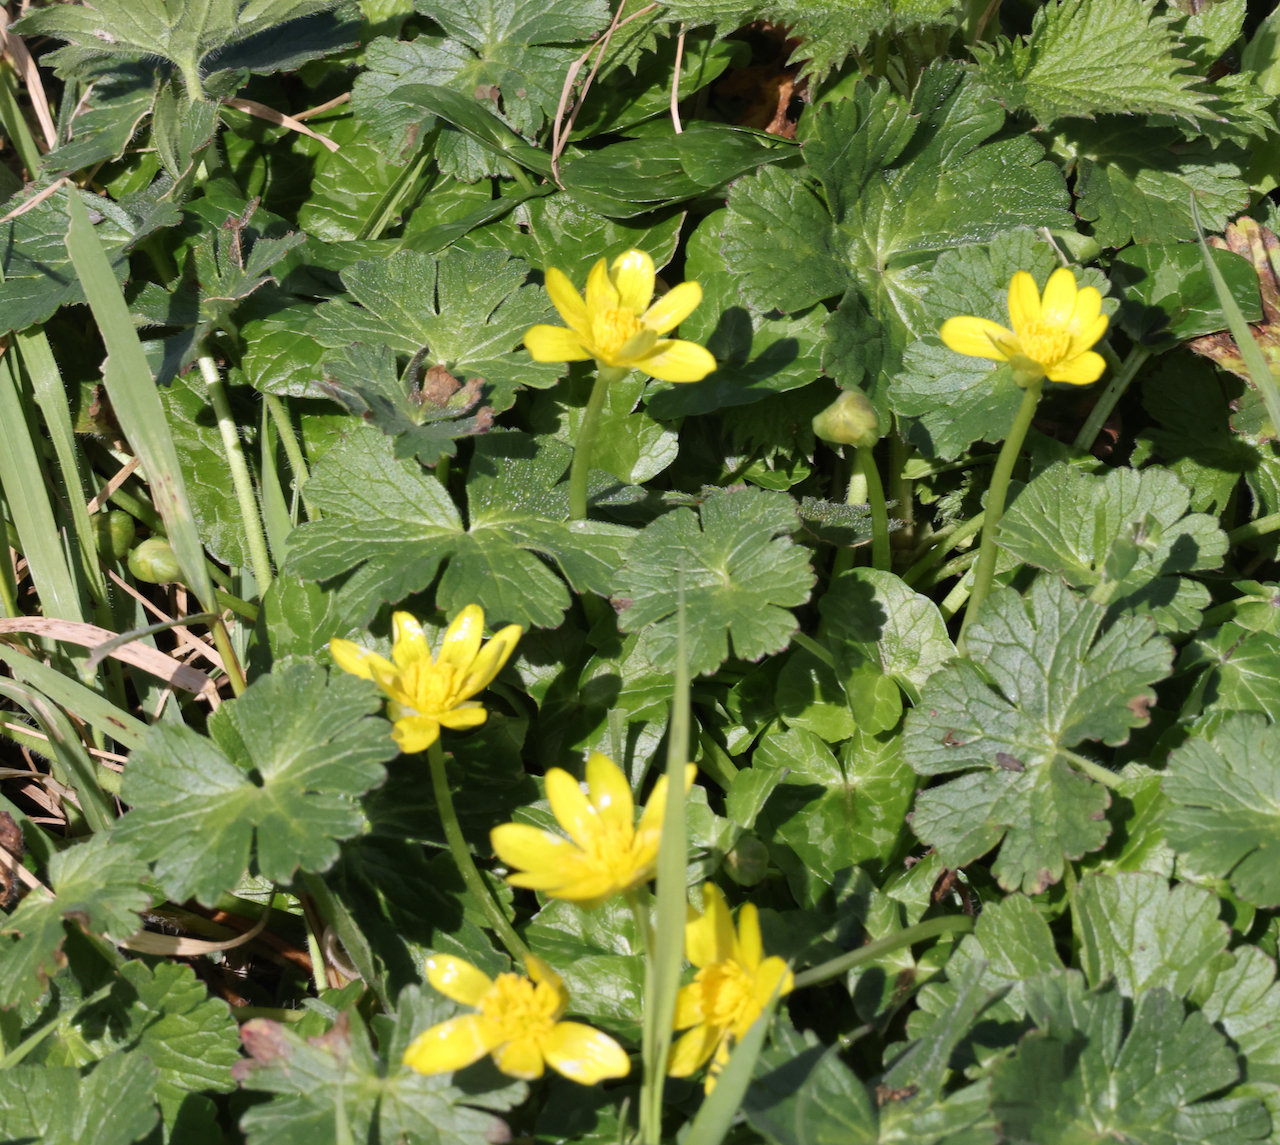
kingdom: Plantae
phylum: Tracheophyta
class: Magnoliopsida
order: Ranunculales
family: Ranunculaceae
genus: Ficaria
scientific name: Ficaria verna
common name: Lesser celandine
